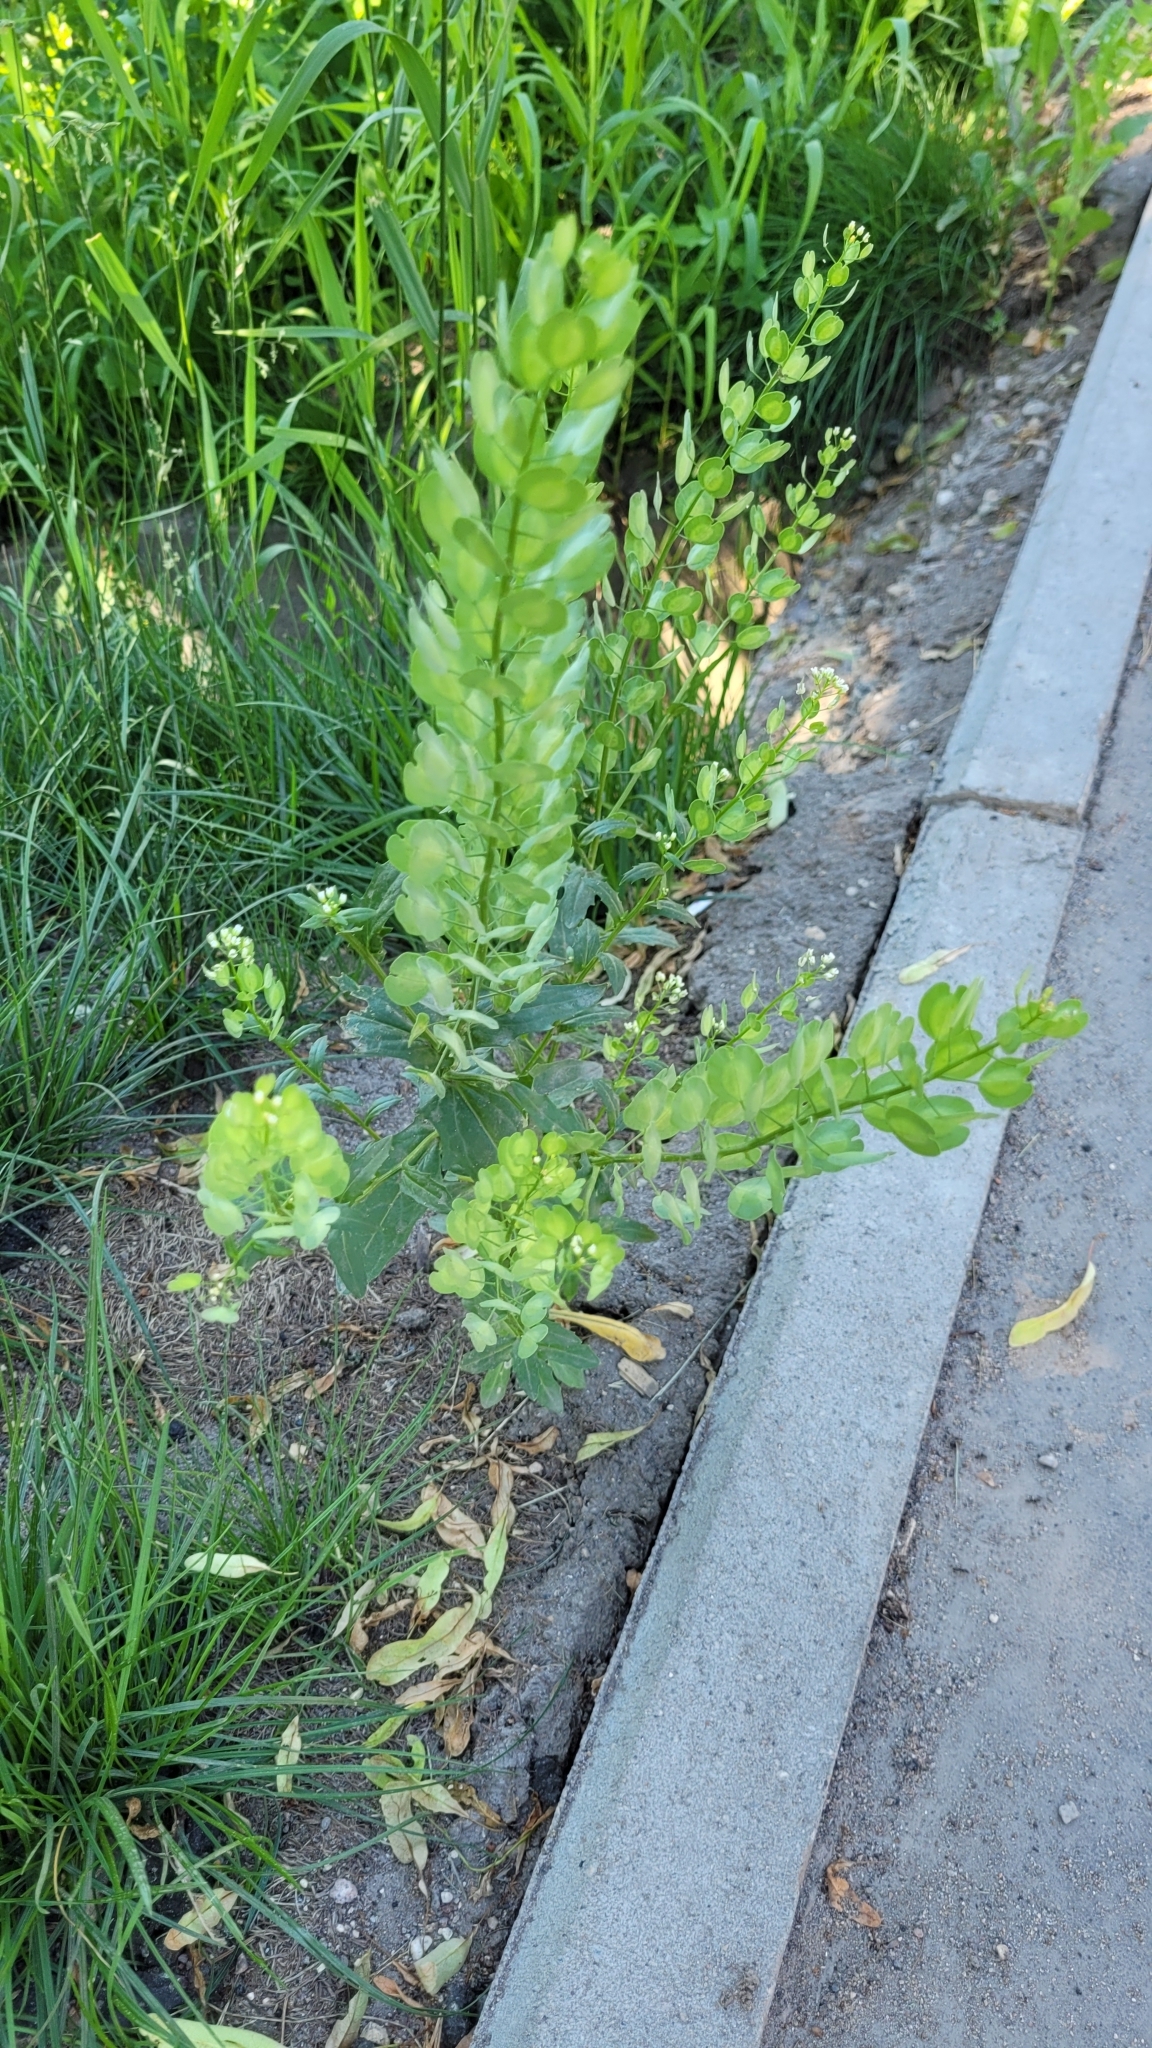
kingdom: Plantae
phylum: Tracheophyta
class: Magnoliopsida
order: Brassicales
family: Brassicaceae
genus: Thlaspi
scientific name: Thlaspi arvense
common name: Field pennycress
